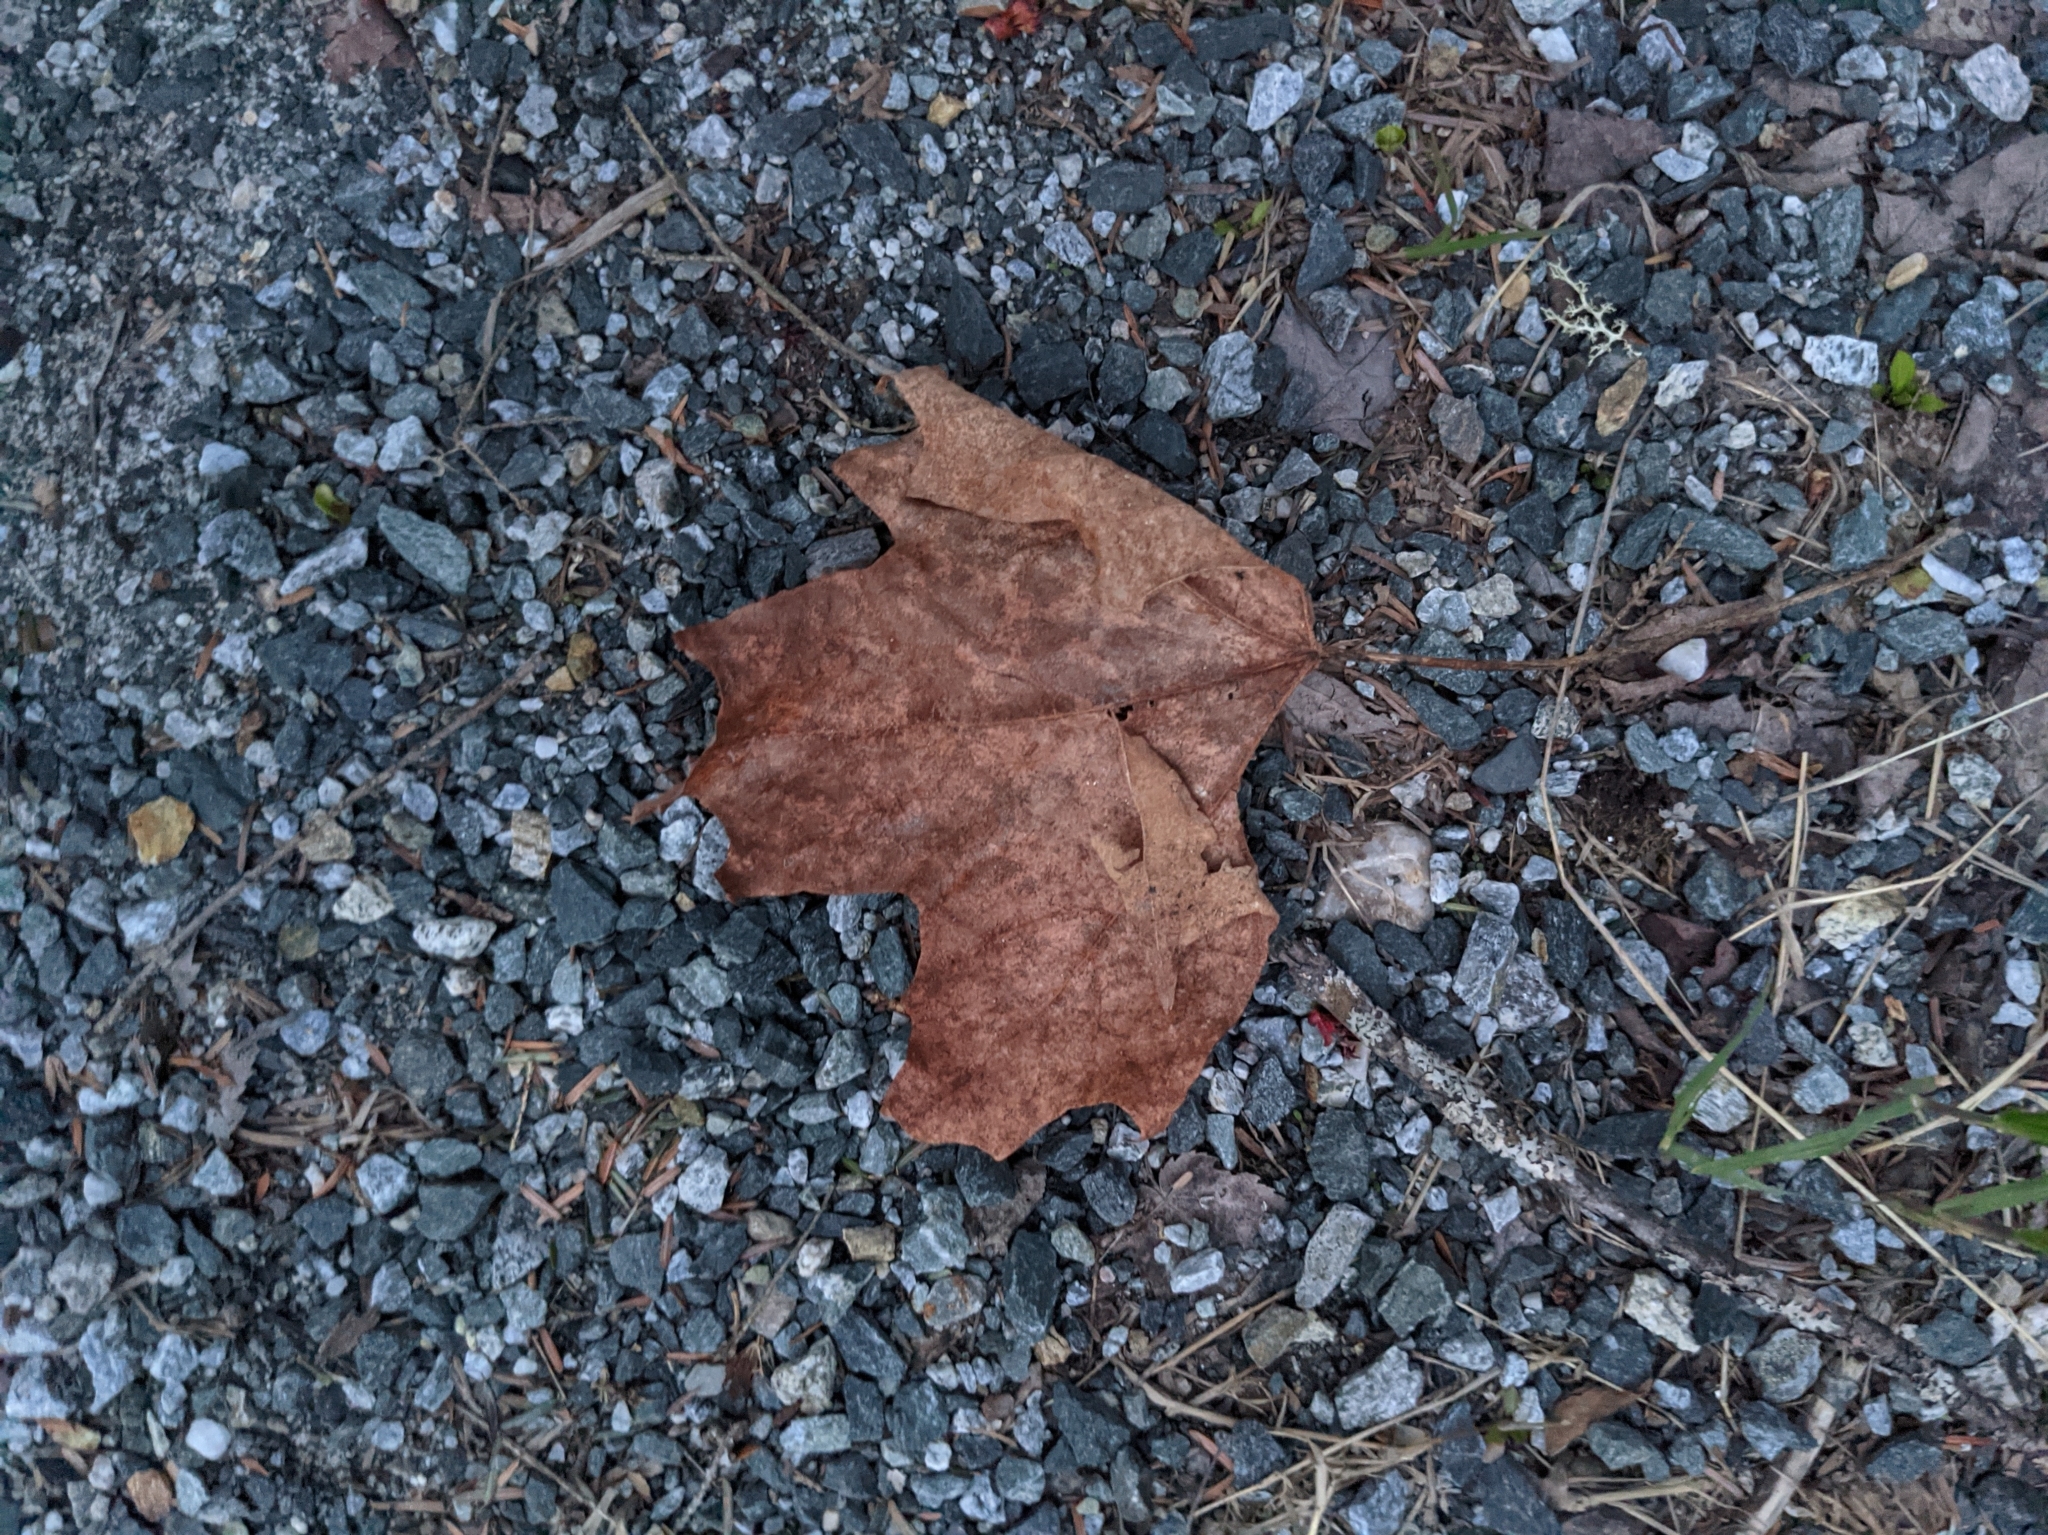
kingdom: Plantae
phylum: Tracheophyta
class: Magnoliopsida
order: Sapindales
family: Sapindaceae
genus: Acer
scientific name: Acer rubrum
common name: Red maple
